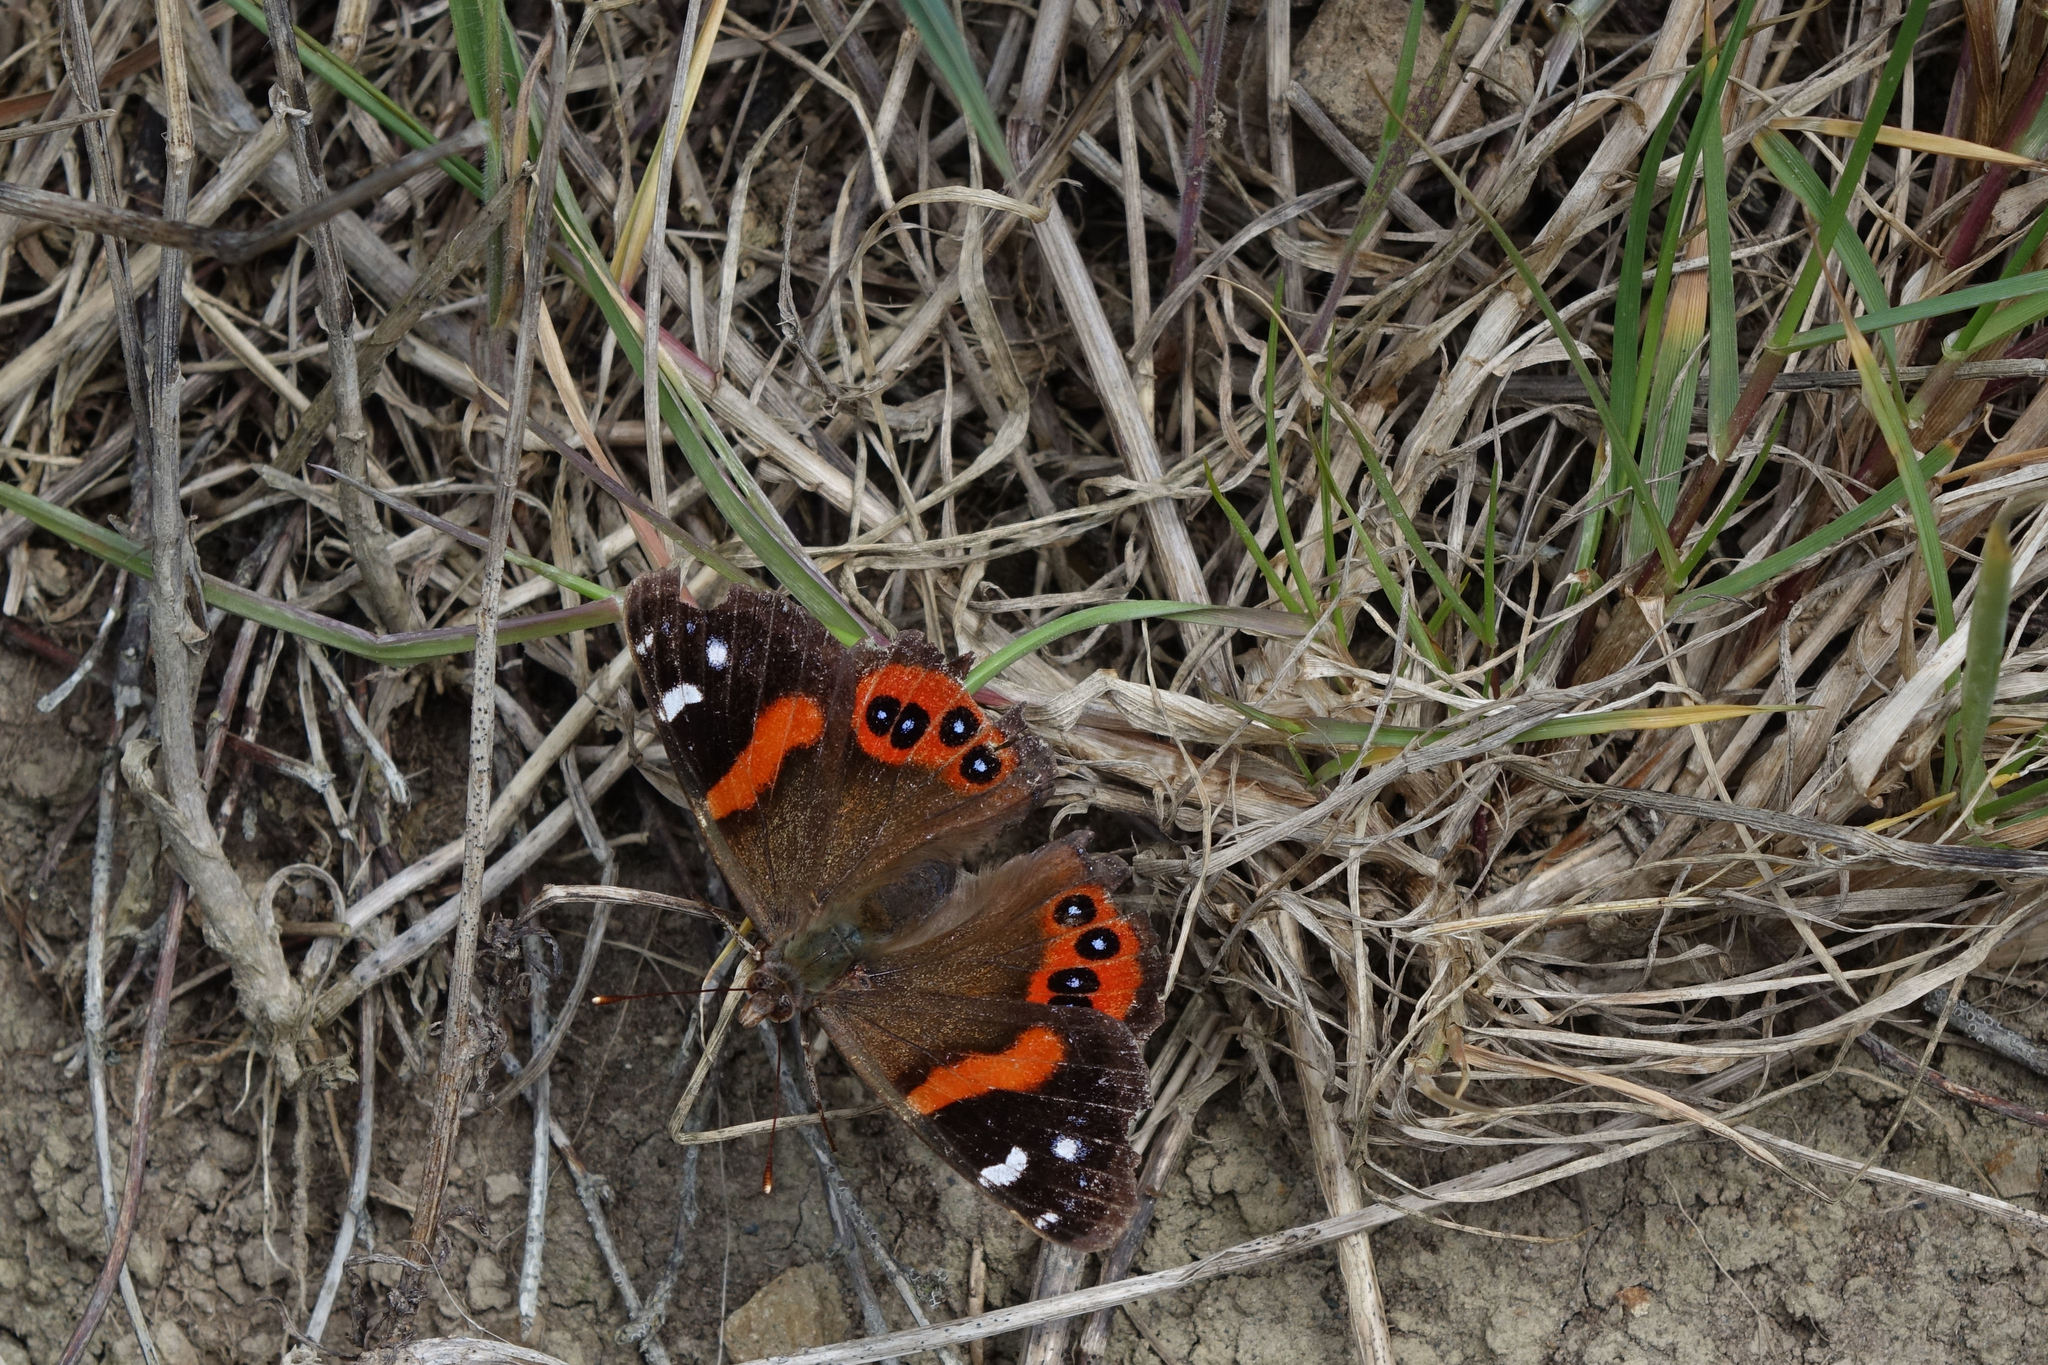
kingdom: Animalia
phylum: Arthropoda
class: Insecta
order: Lepidoptera
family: Nymphalidae
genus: Vanessa
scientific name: Vanessa gonerilla
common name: New zealand red admiral
